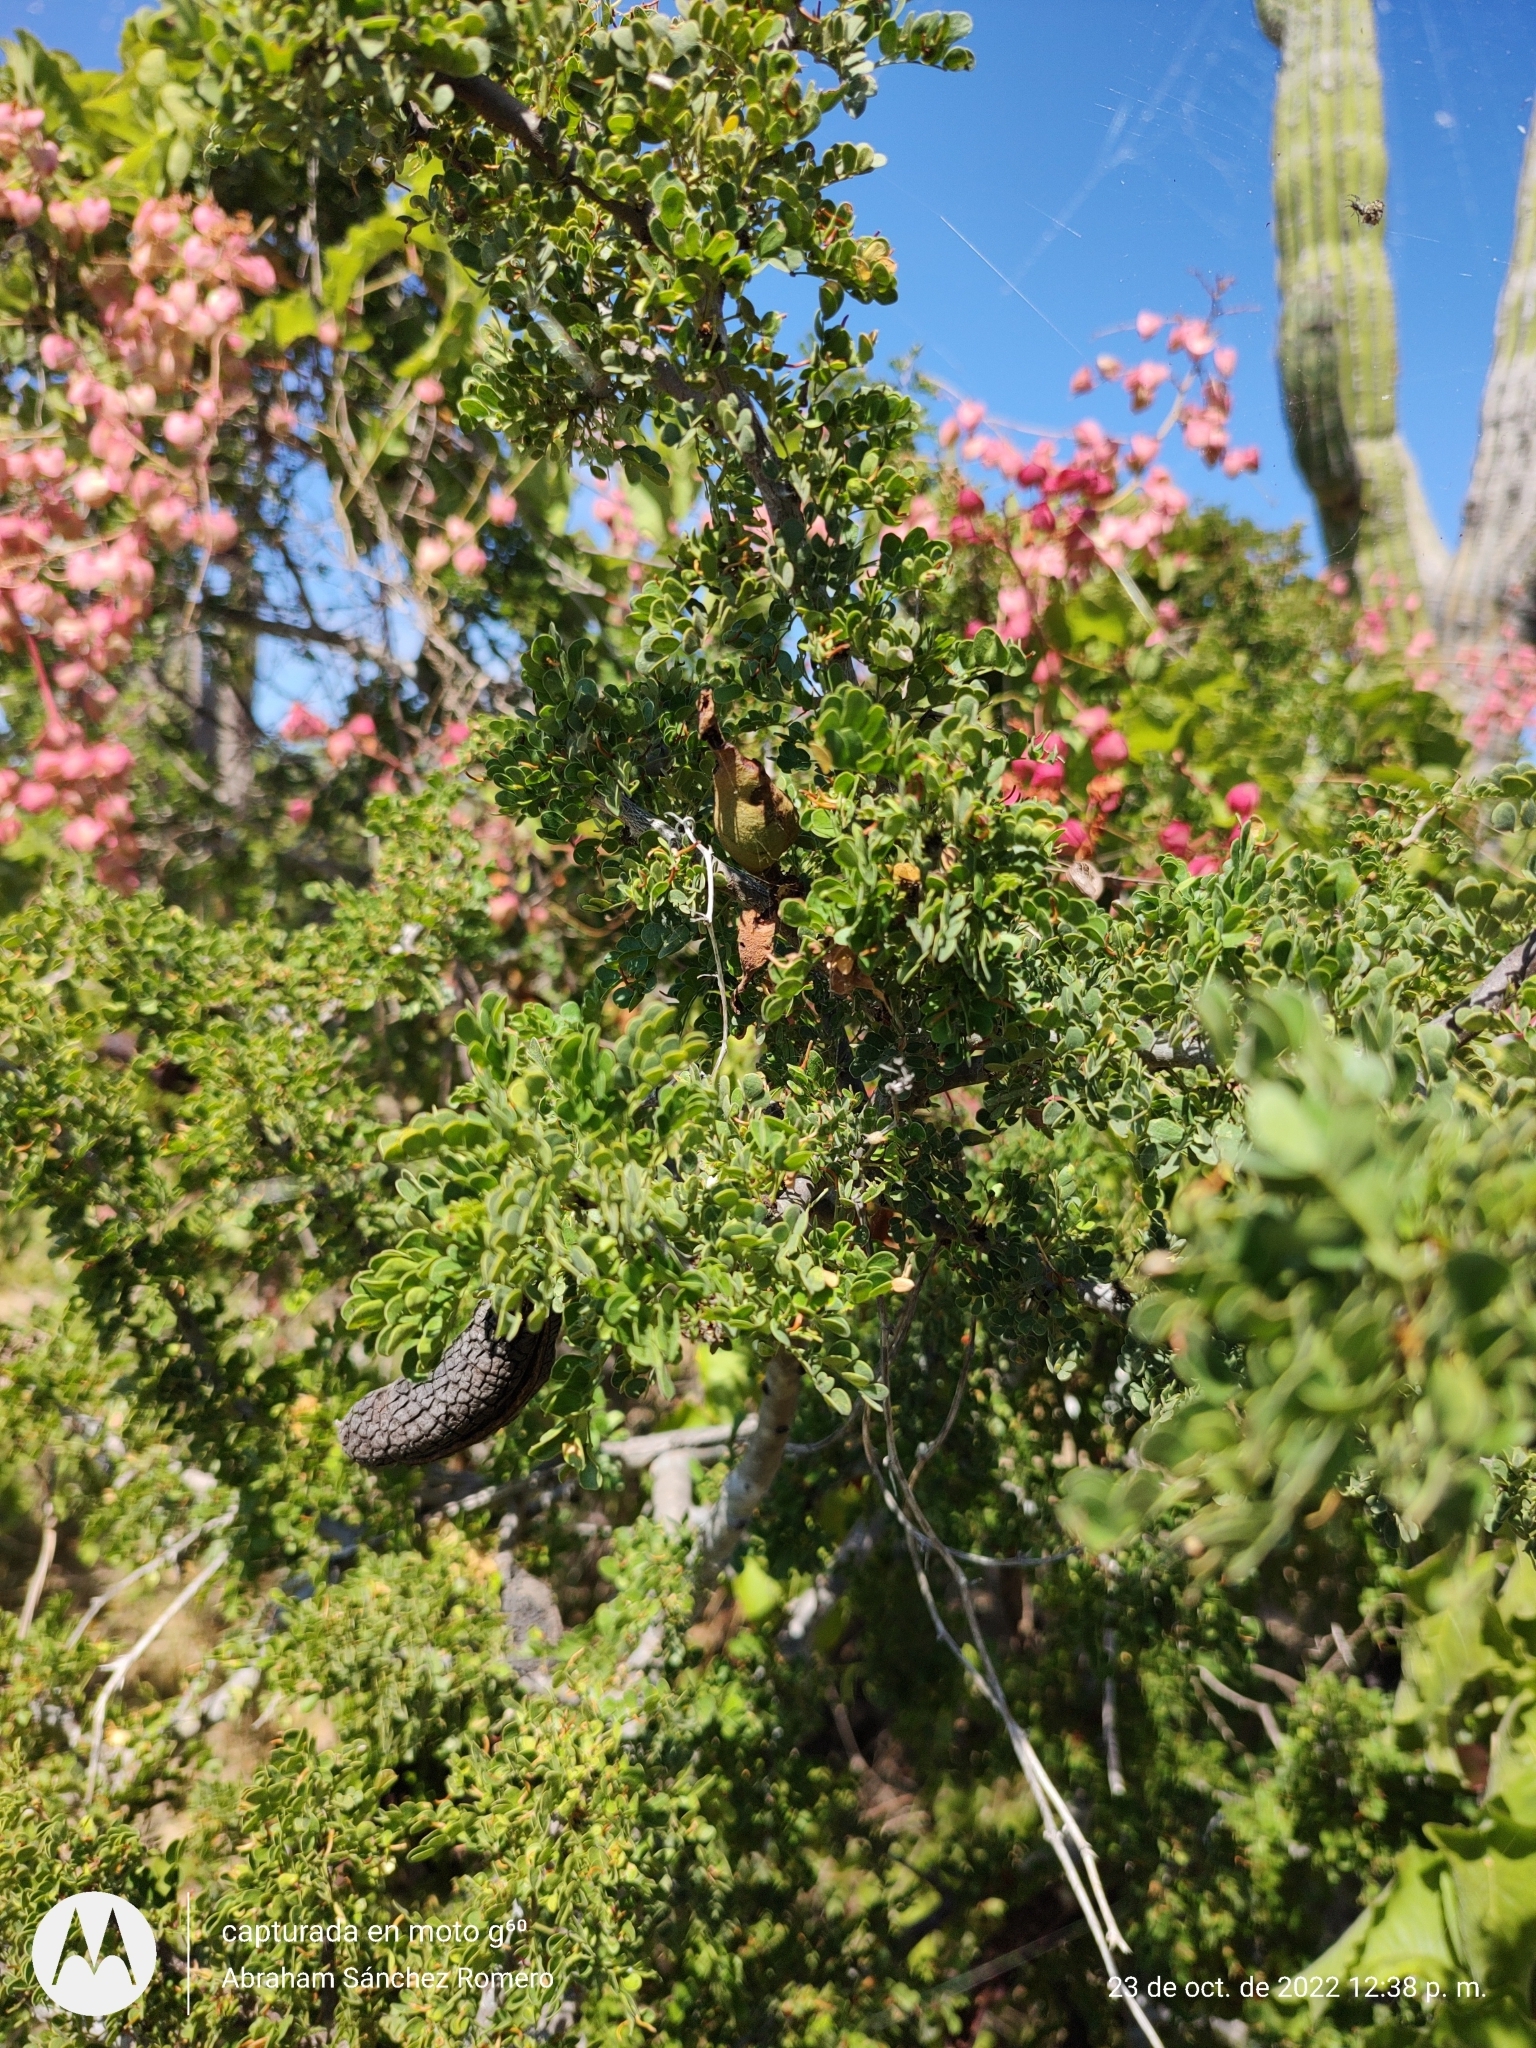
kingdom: Plantae
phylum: Tracheophyta
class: Magnoliopsida
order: Fabales
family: Fabaceae
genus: Ebenopsis
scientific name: Ebenopsis confinis
